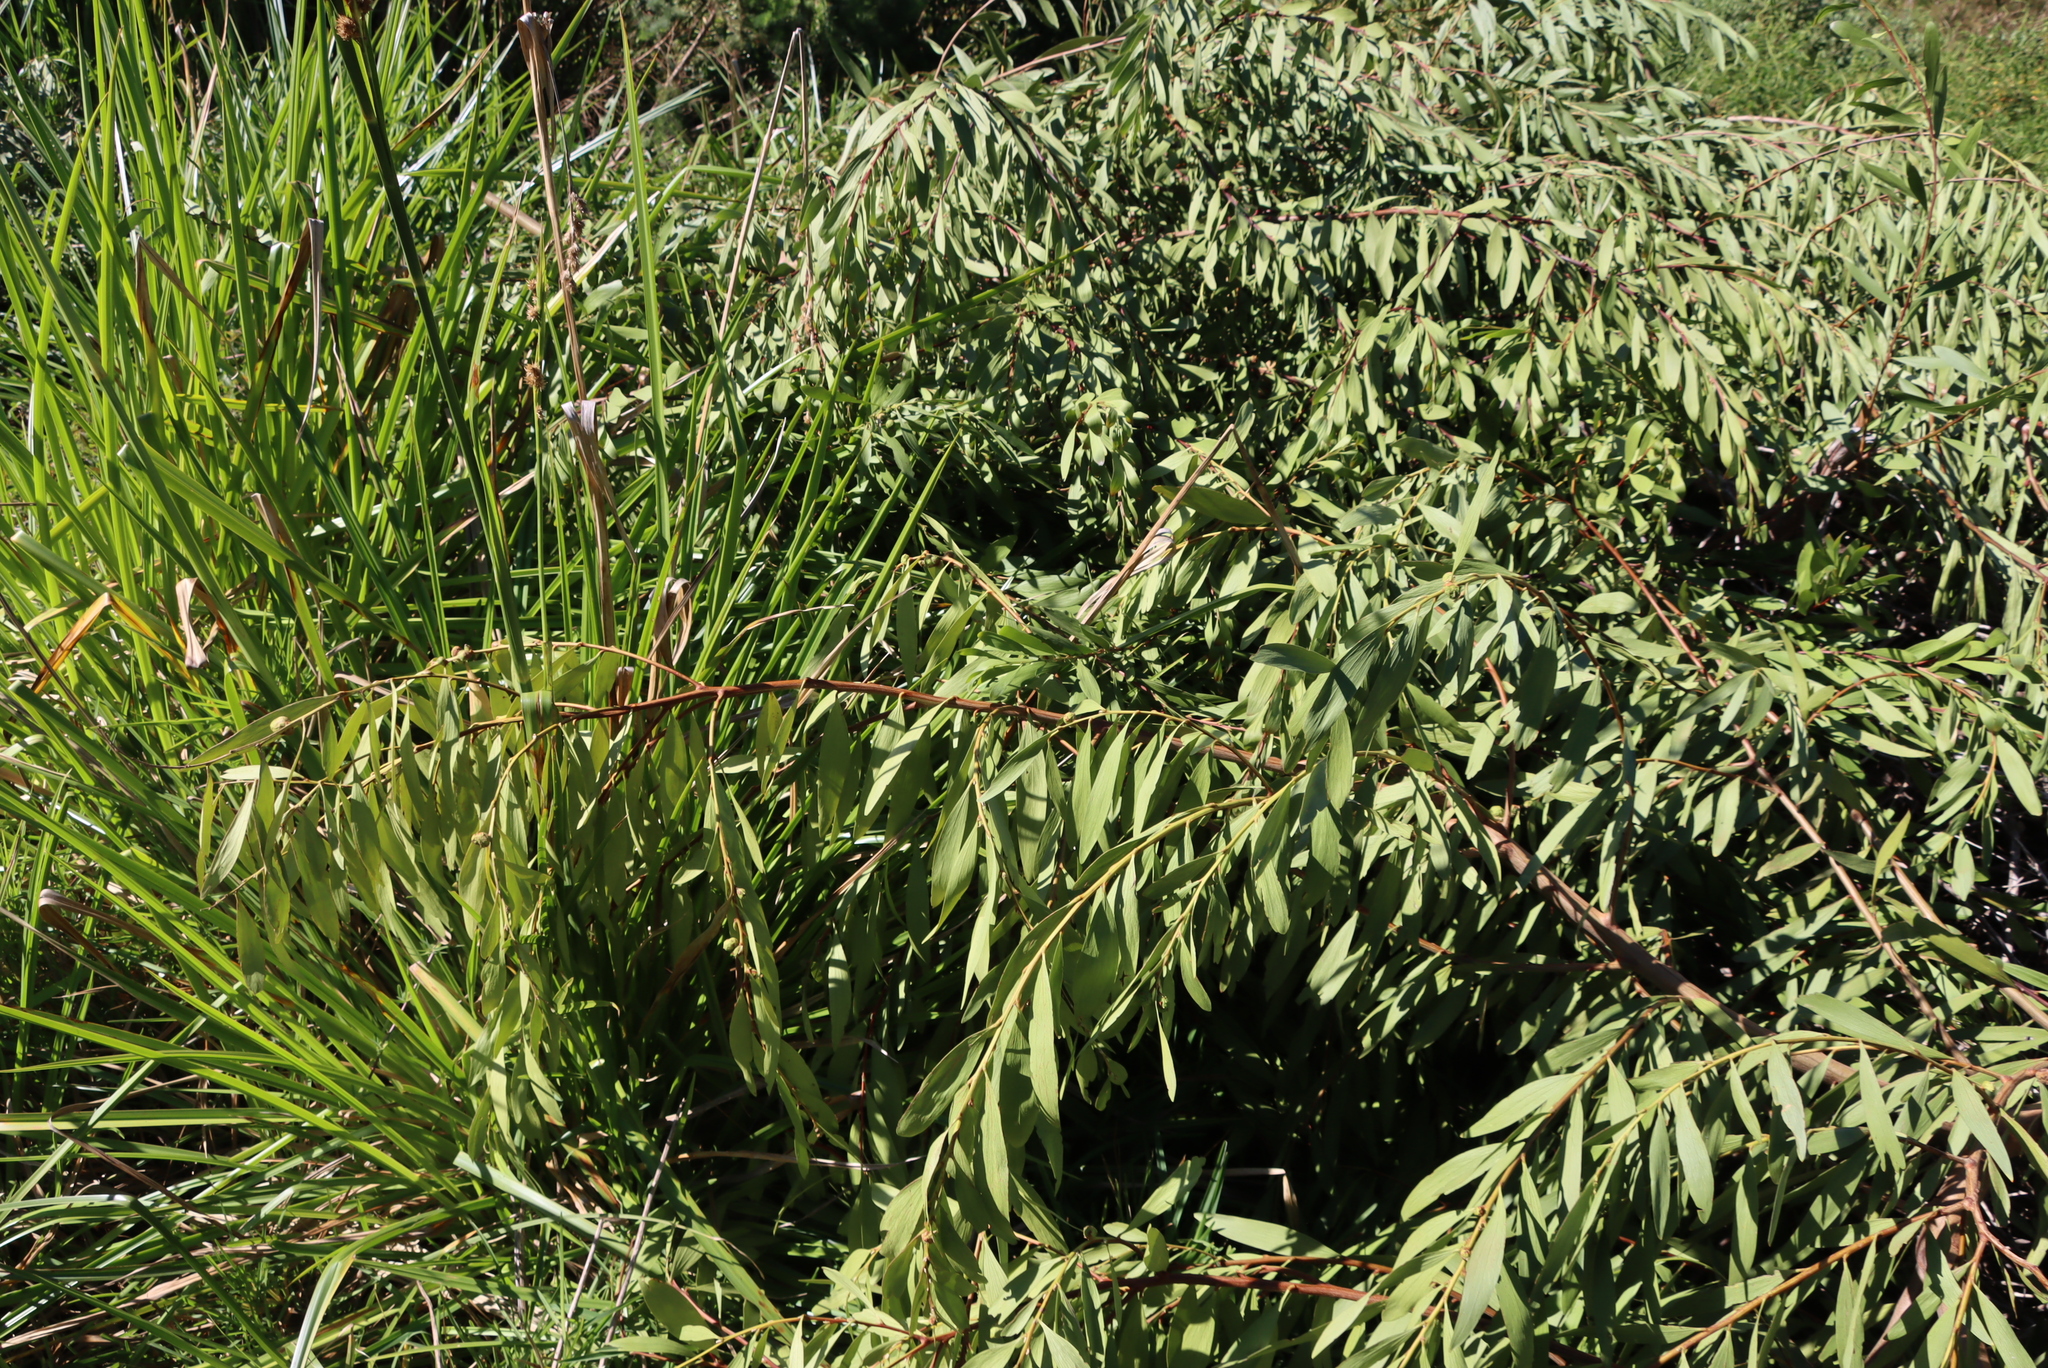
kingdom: Plantae
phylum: Tracheophyta
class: Magnoliopsida
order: Fabales
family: Fabaceae
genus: Acacia
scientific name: Acacia longifolia
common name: Sydney golden wattle
